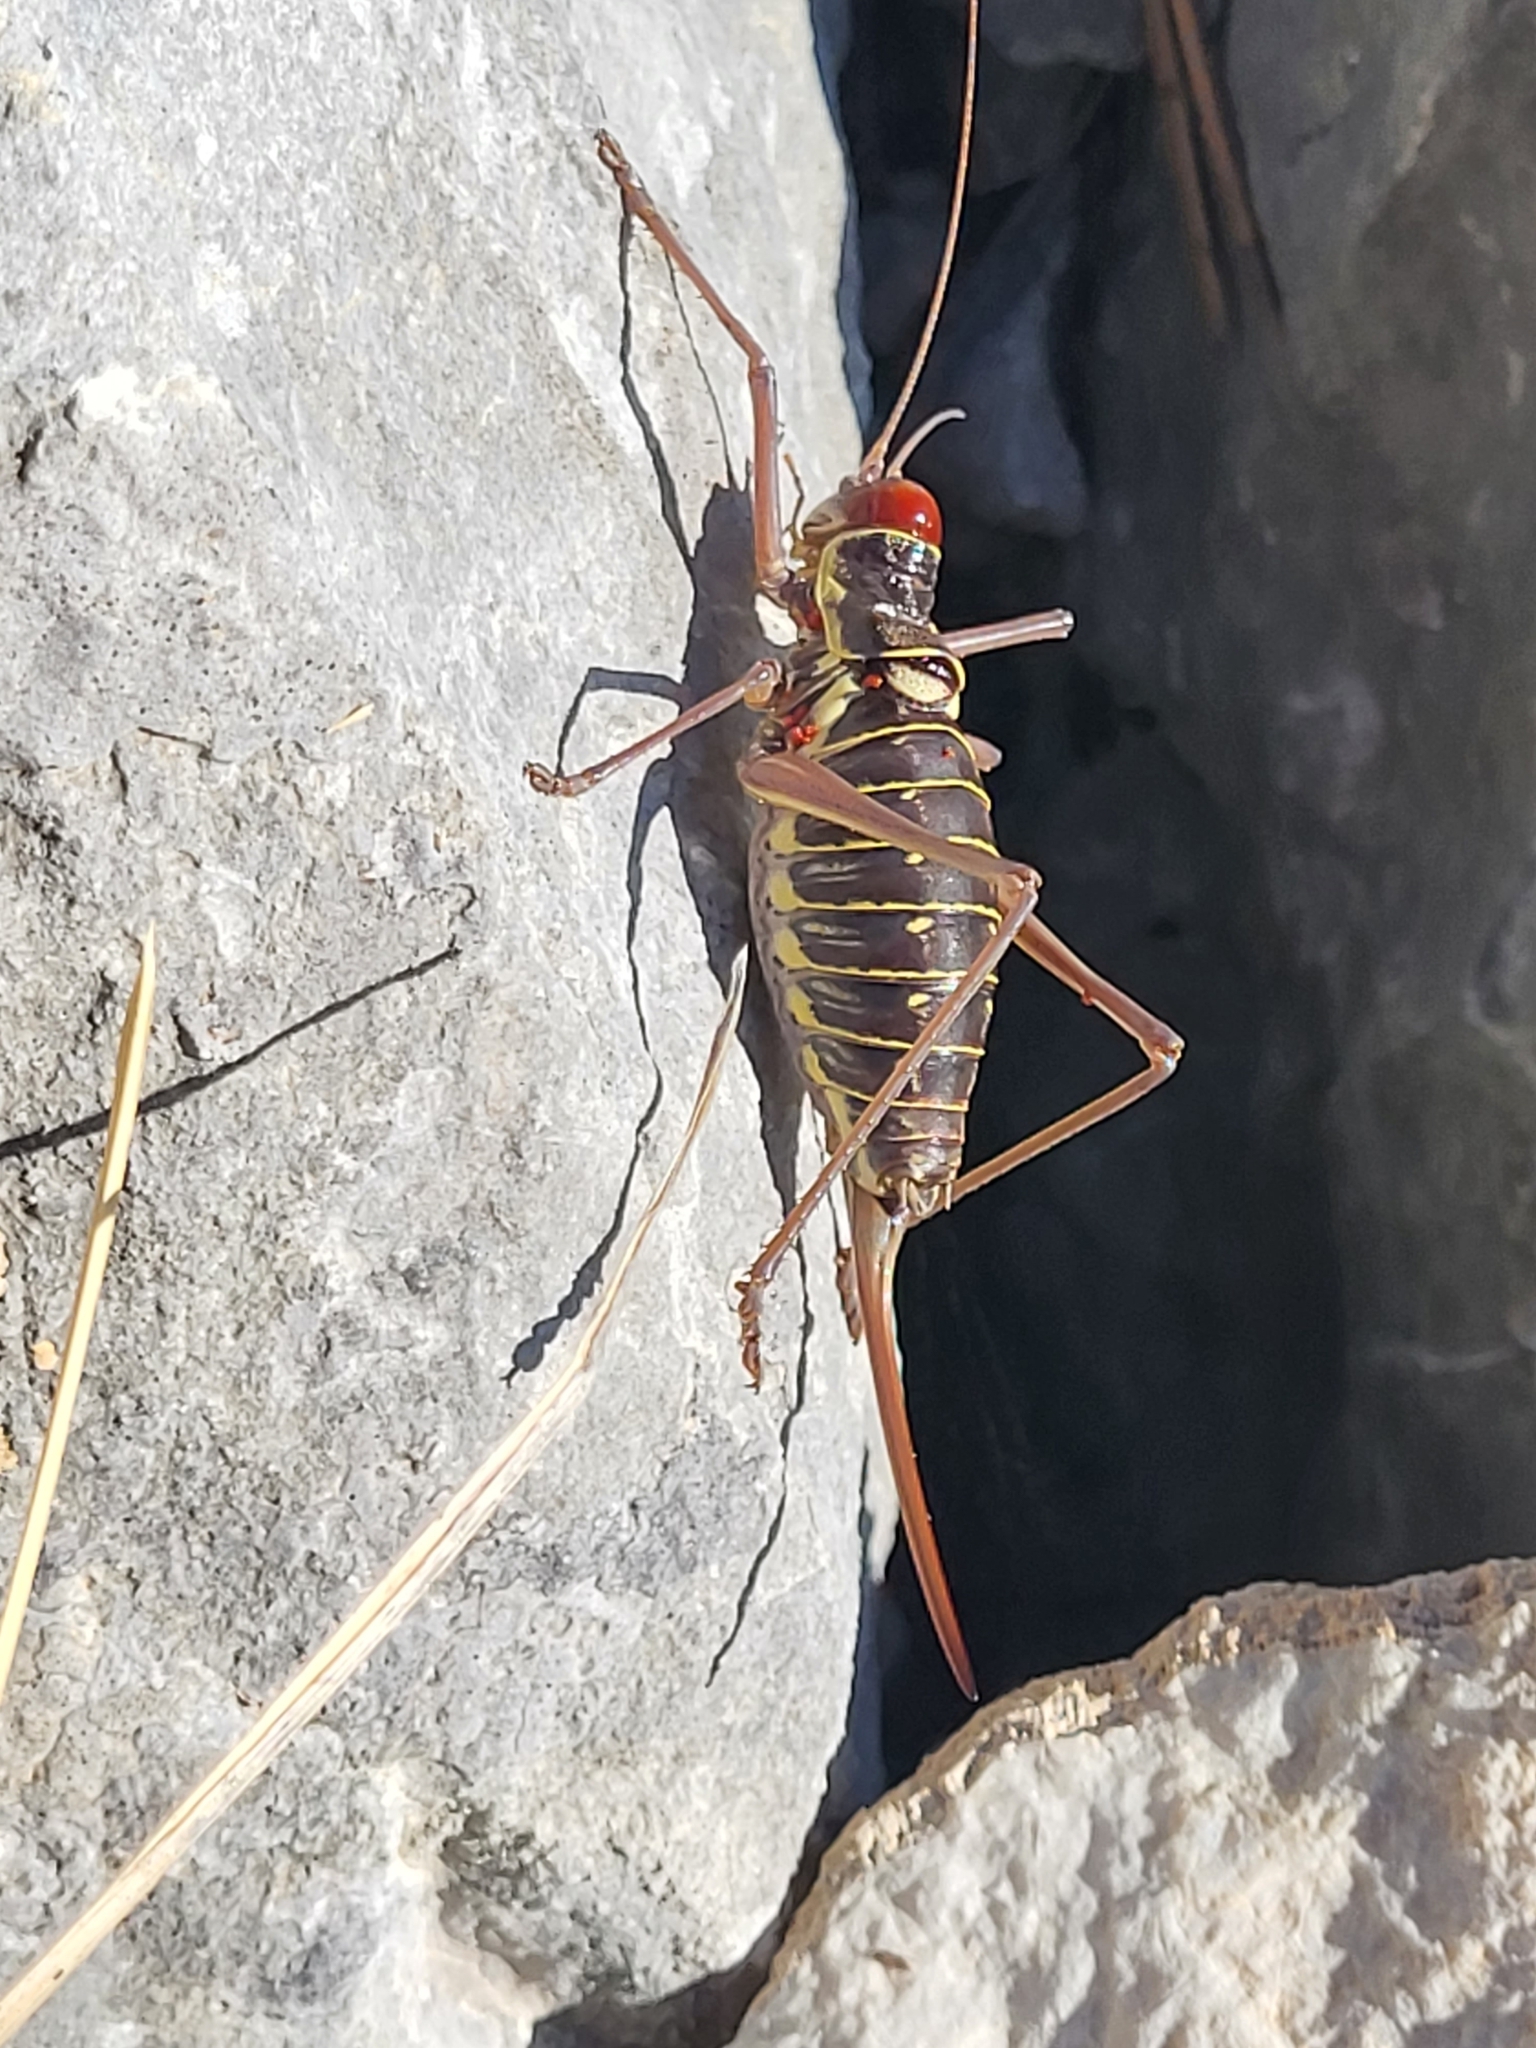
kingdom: Animalia
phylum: Arthropoda
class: Insecta
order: Orthoptera
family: Tettigoniidae
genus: Dinarippiger
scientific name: Dinarippiger discoidalis
